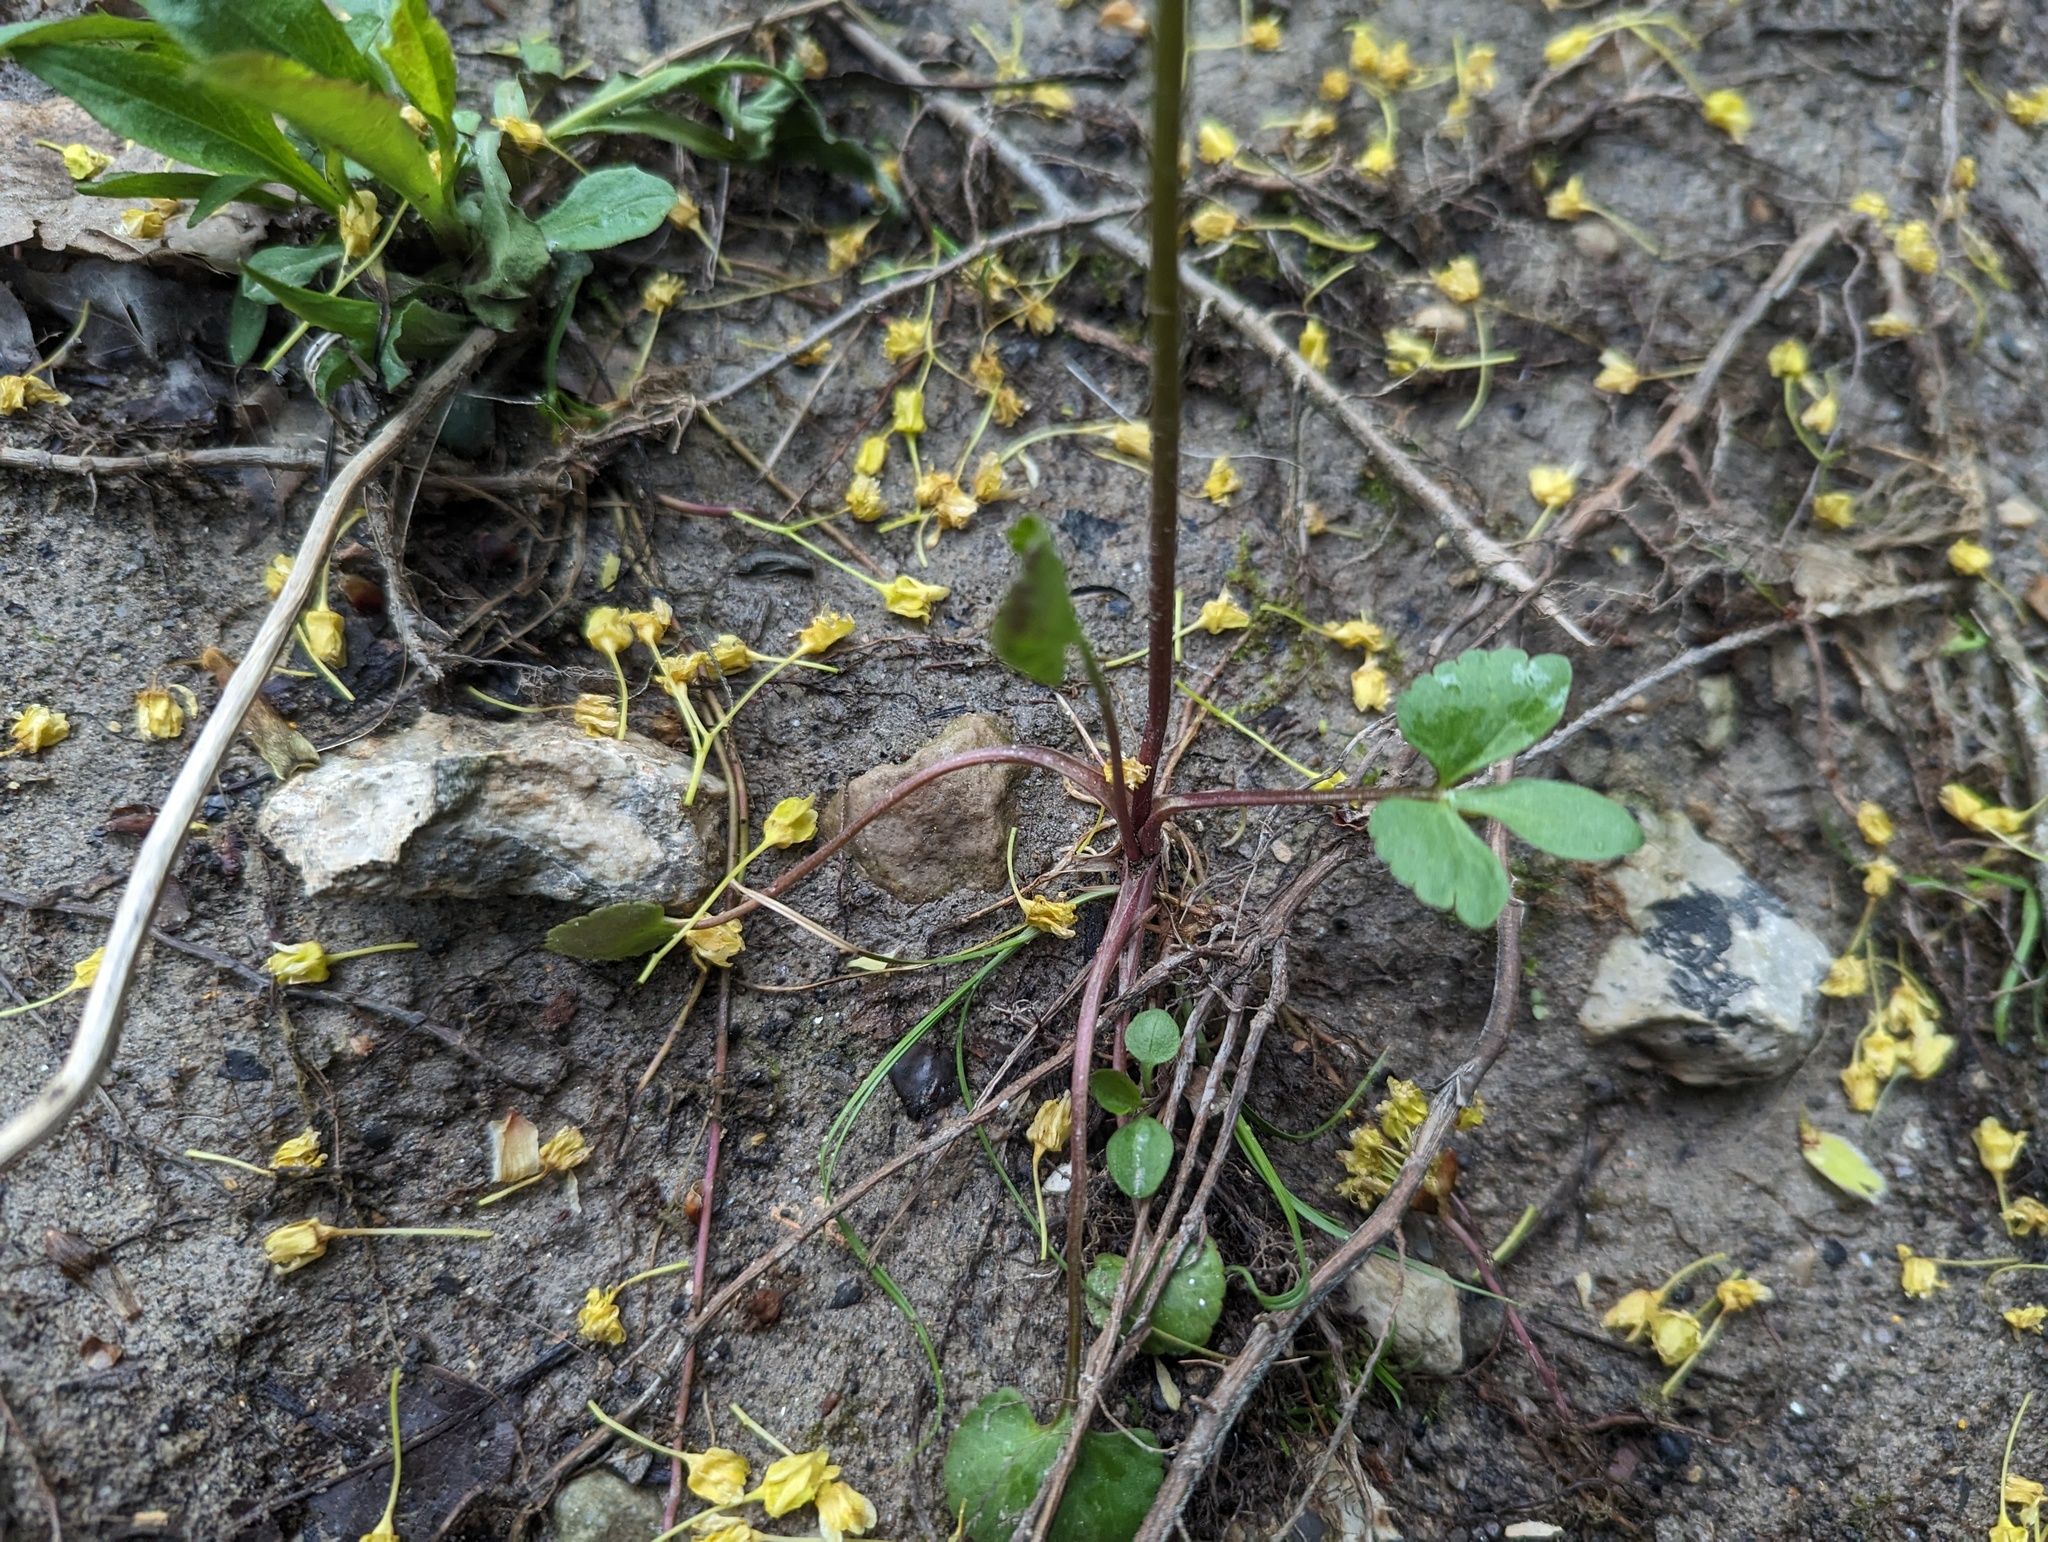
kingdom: Plantae
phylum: Tracheophyta
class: Magnoliopsida
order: Ranunculales
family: Ranunculaceae
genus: Ranunculus
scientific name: Ranunculus abortivus
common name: Early wood buttercup
